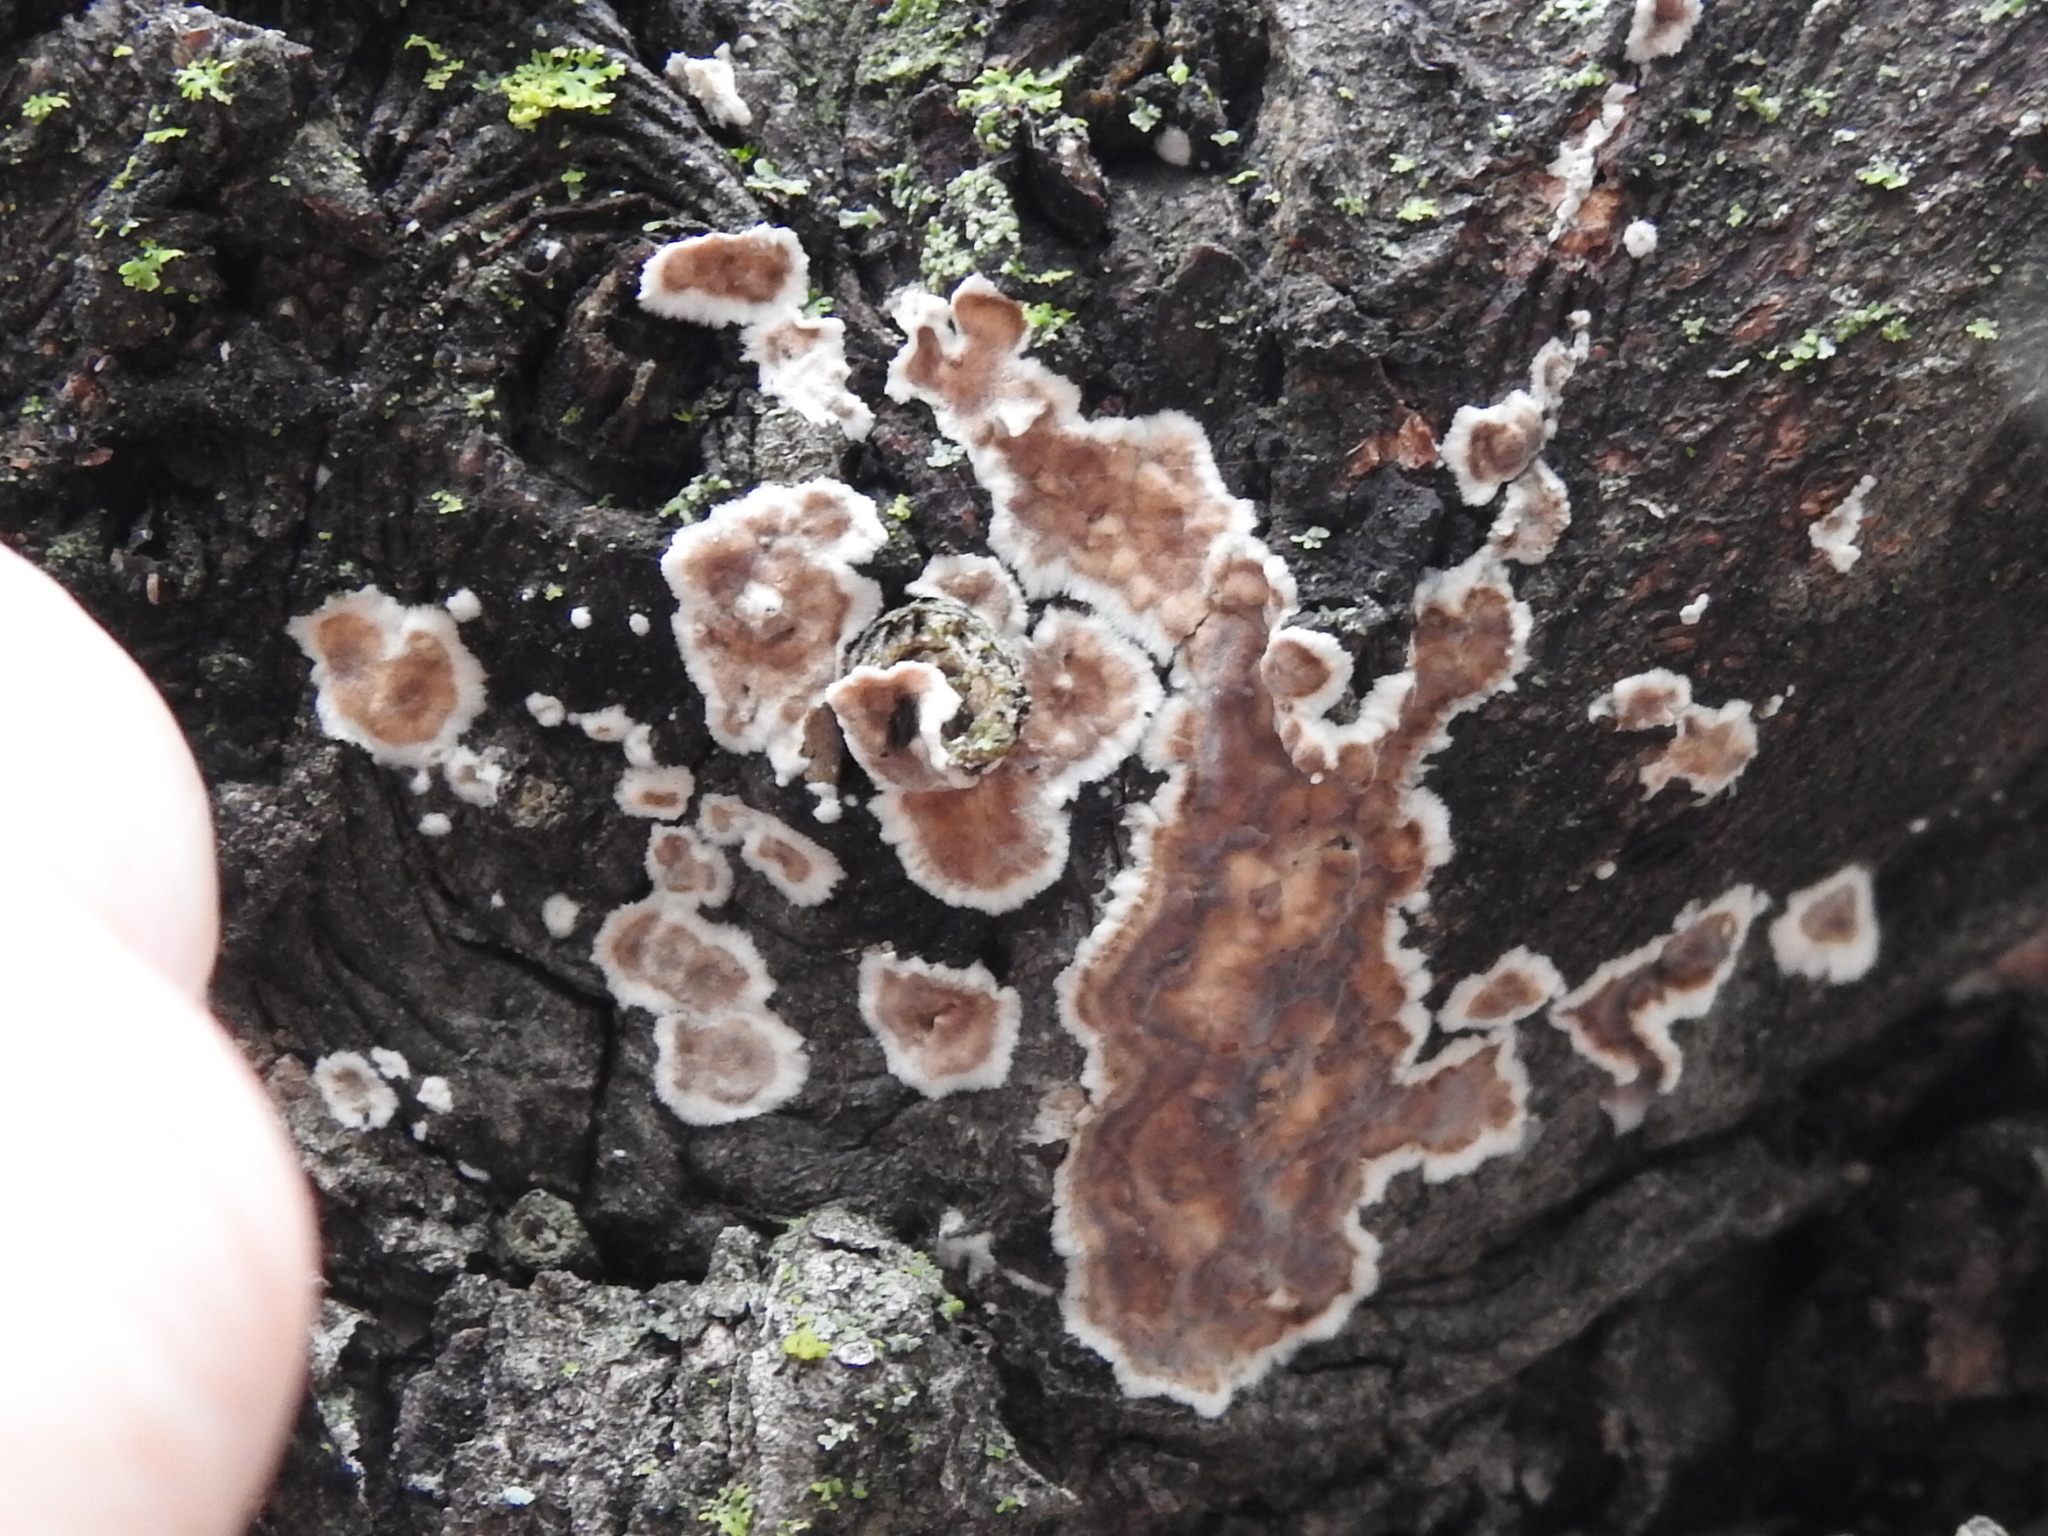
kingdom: Fungi
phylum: Basidiomycota
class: Agaricomycetes
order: Russulales
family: Peniophoraceae
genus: Peniophora
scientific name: Peniophora albobadia
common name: Giraffe spots
